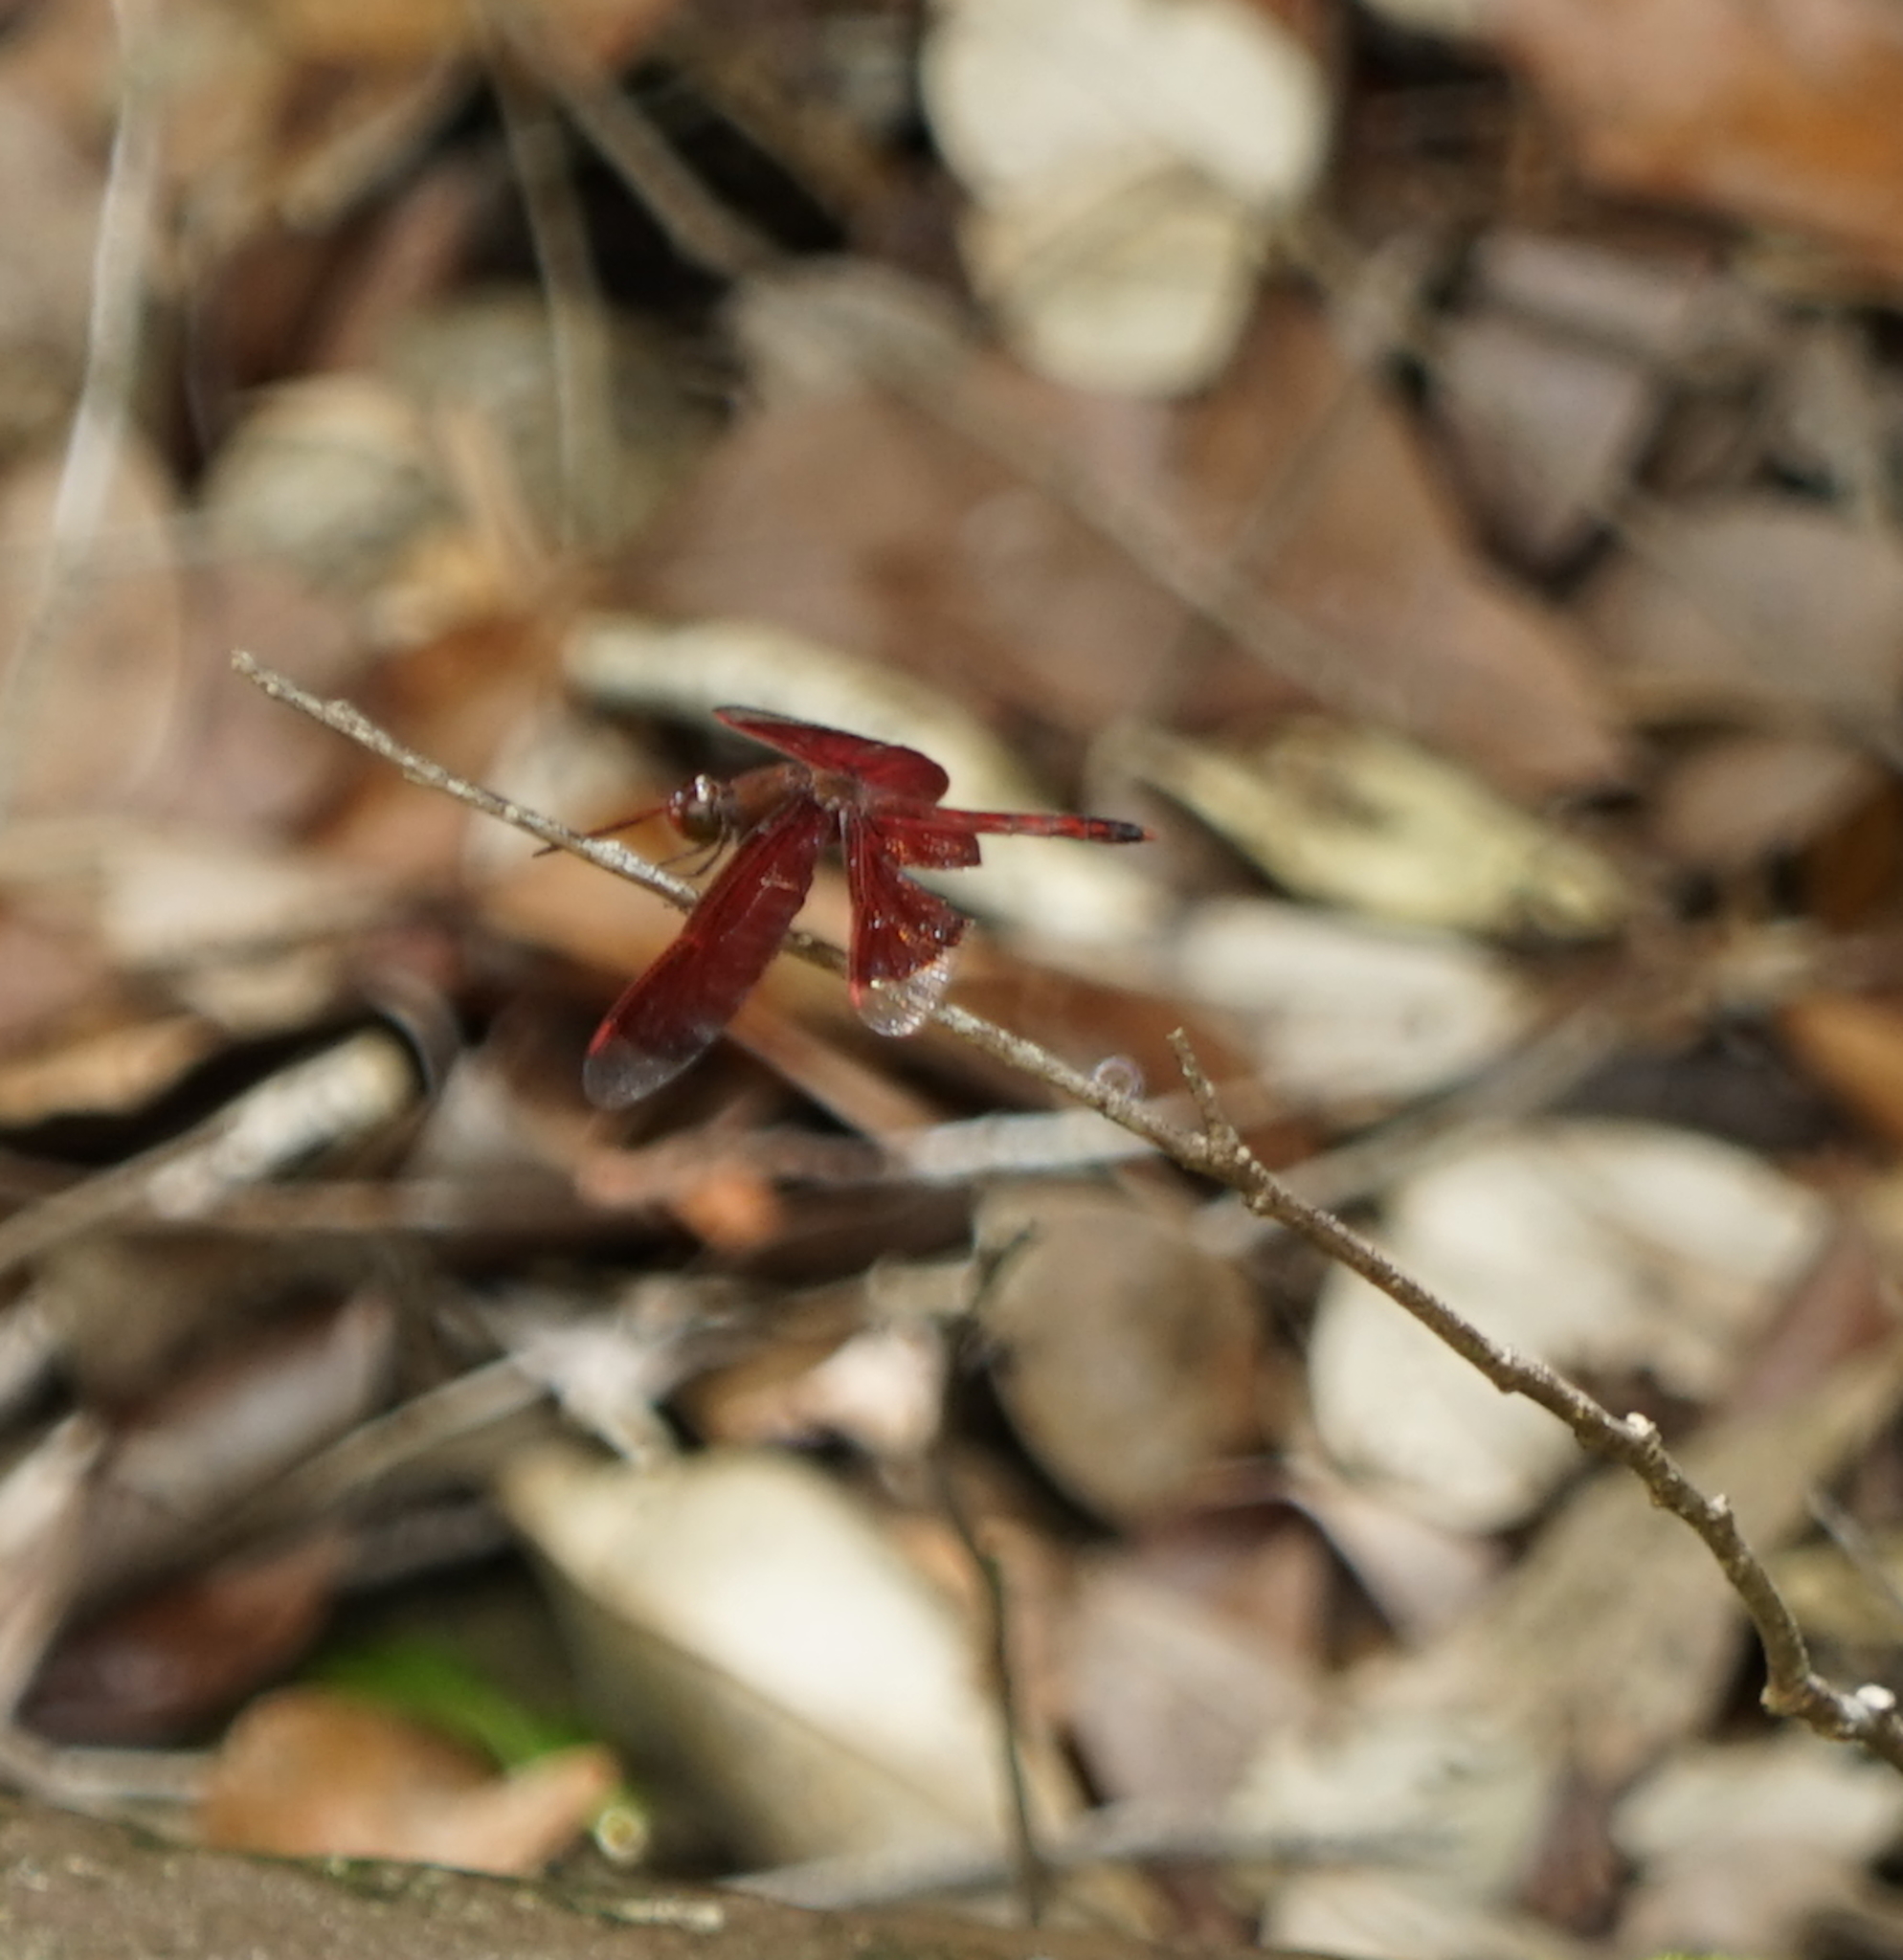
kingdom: Animalia
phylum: Arthropoda
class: Insecta
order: Odonata
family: Libellulidae
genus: Neurothemis
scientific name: Neurothemis ramburii
